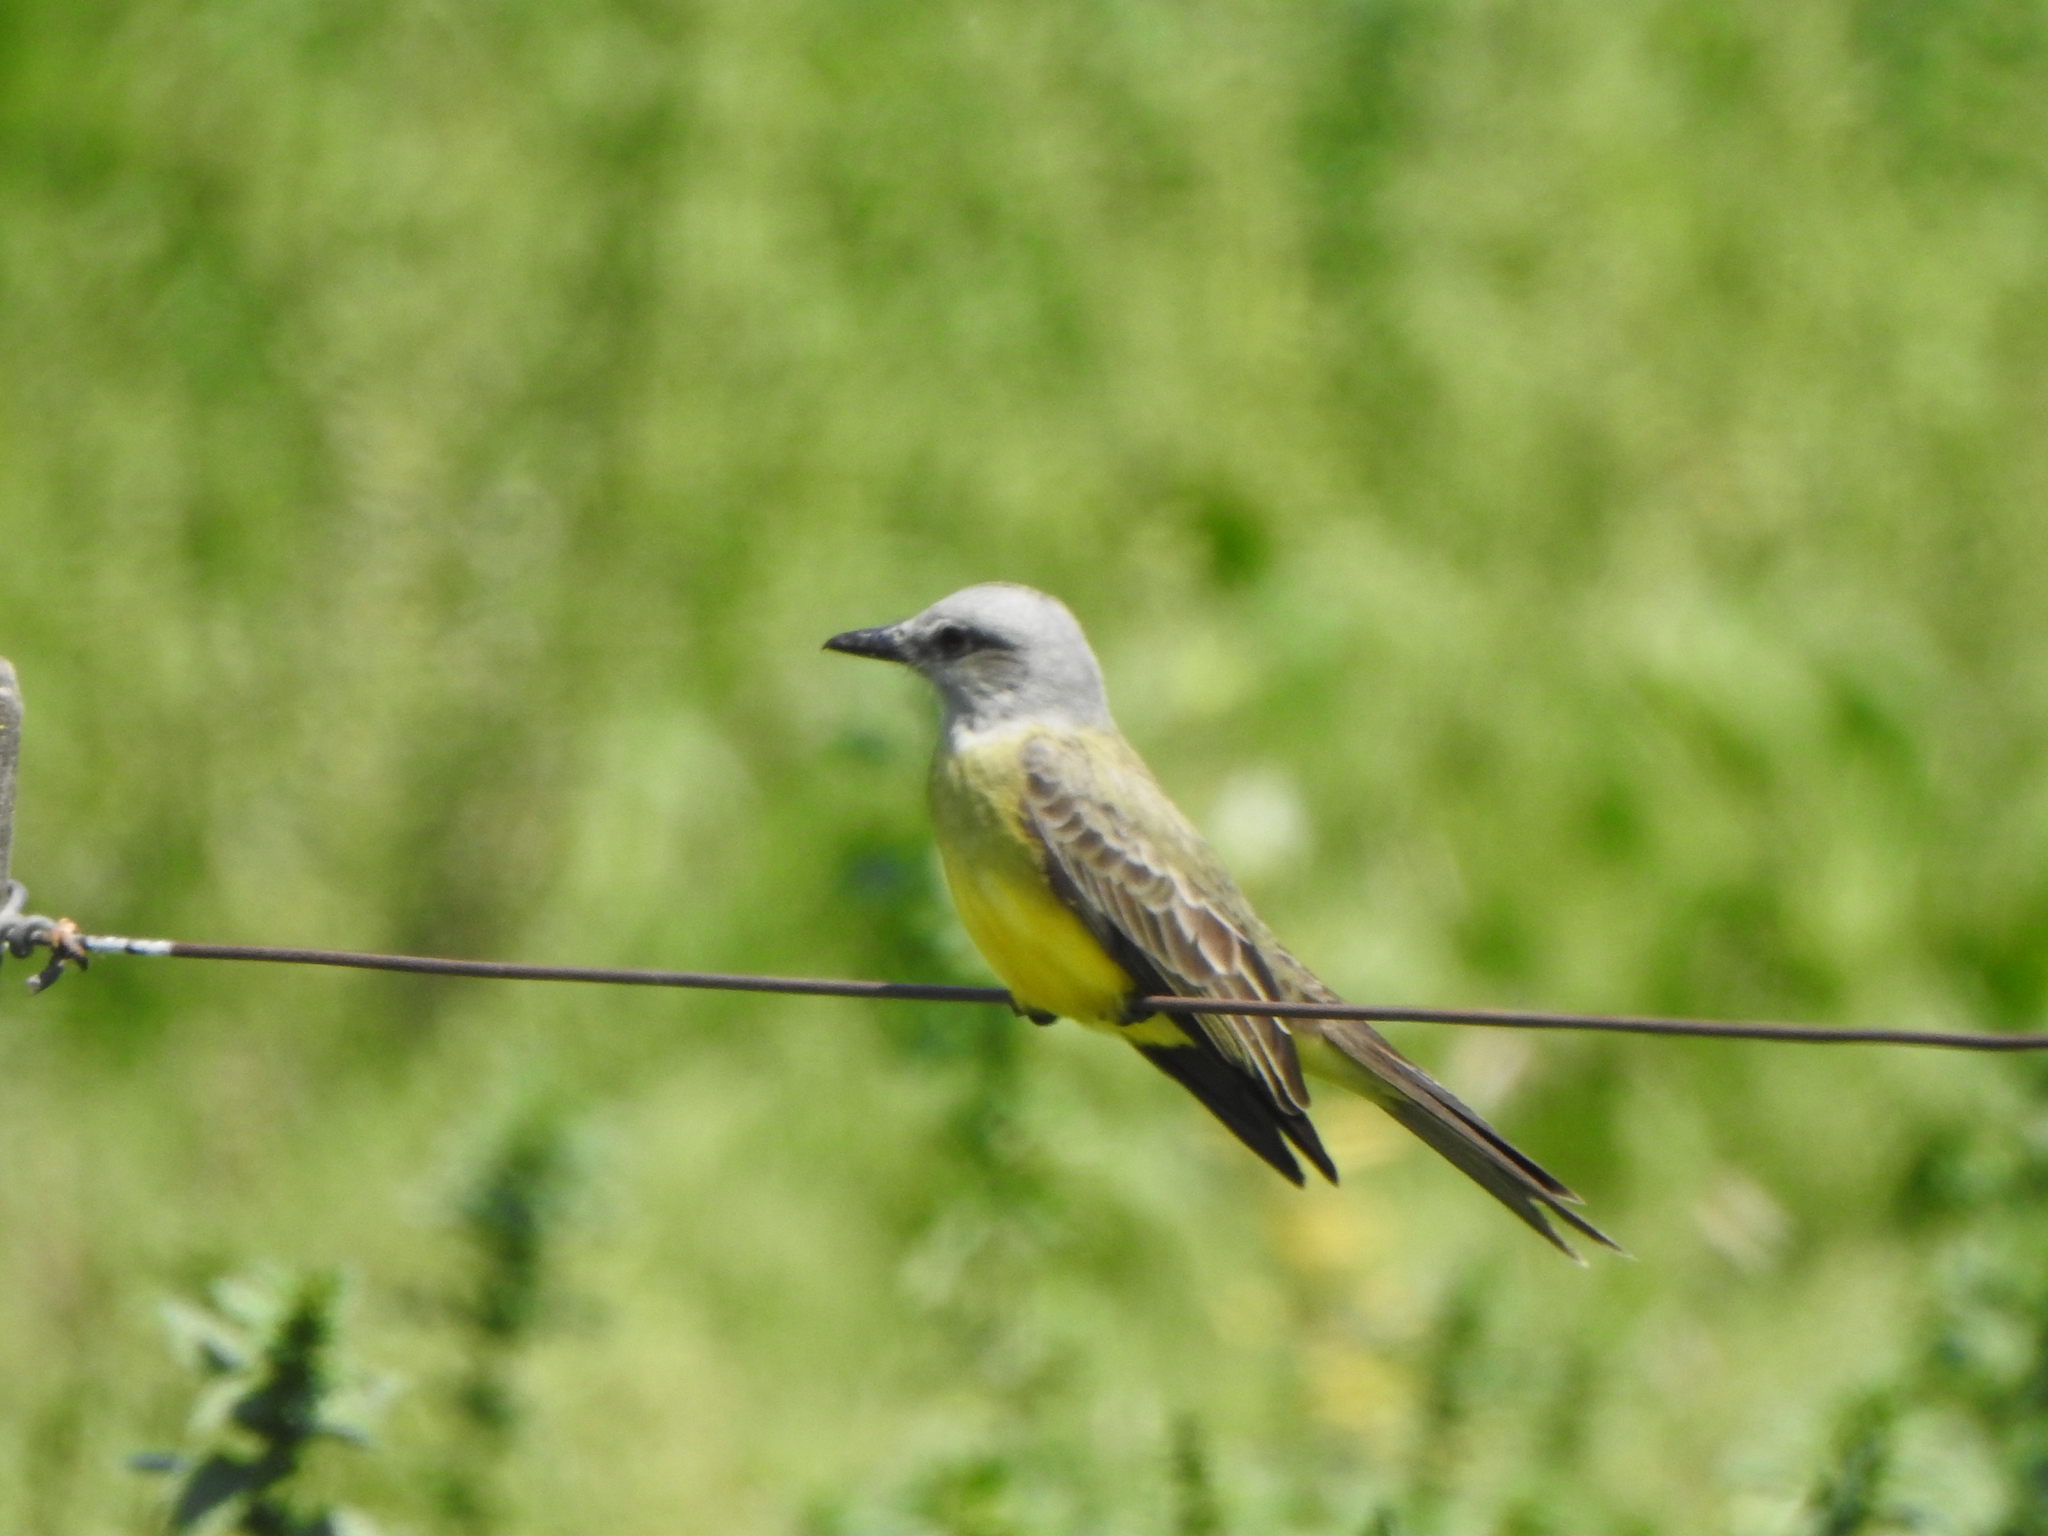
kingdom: Animalia
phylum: Chordata
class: Aves
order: Passeriformes
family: Tyrannidae
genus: Tyrannus
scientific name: Tyrannus melancholicus
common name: Tropical kingbird
